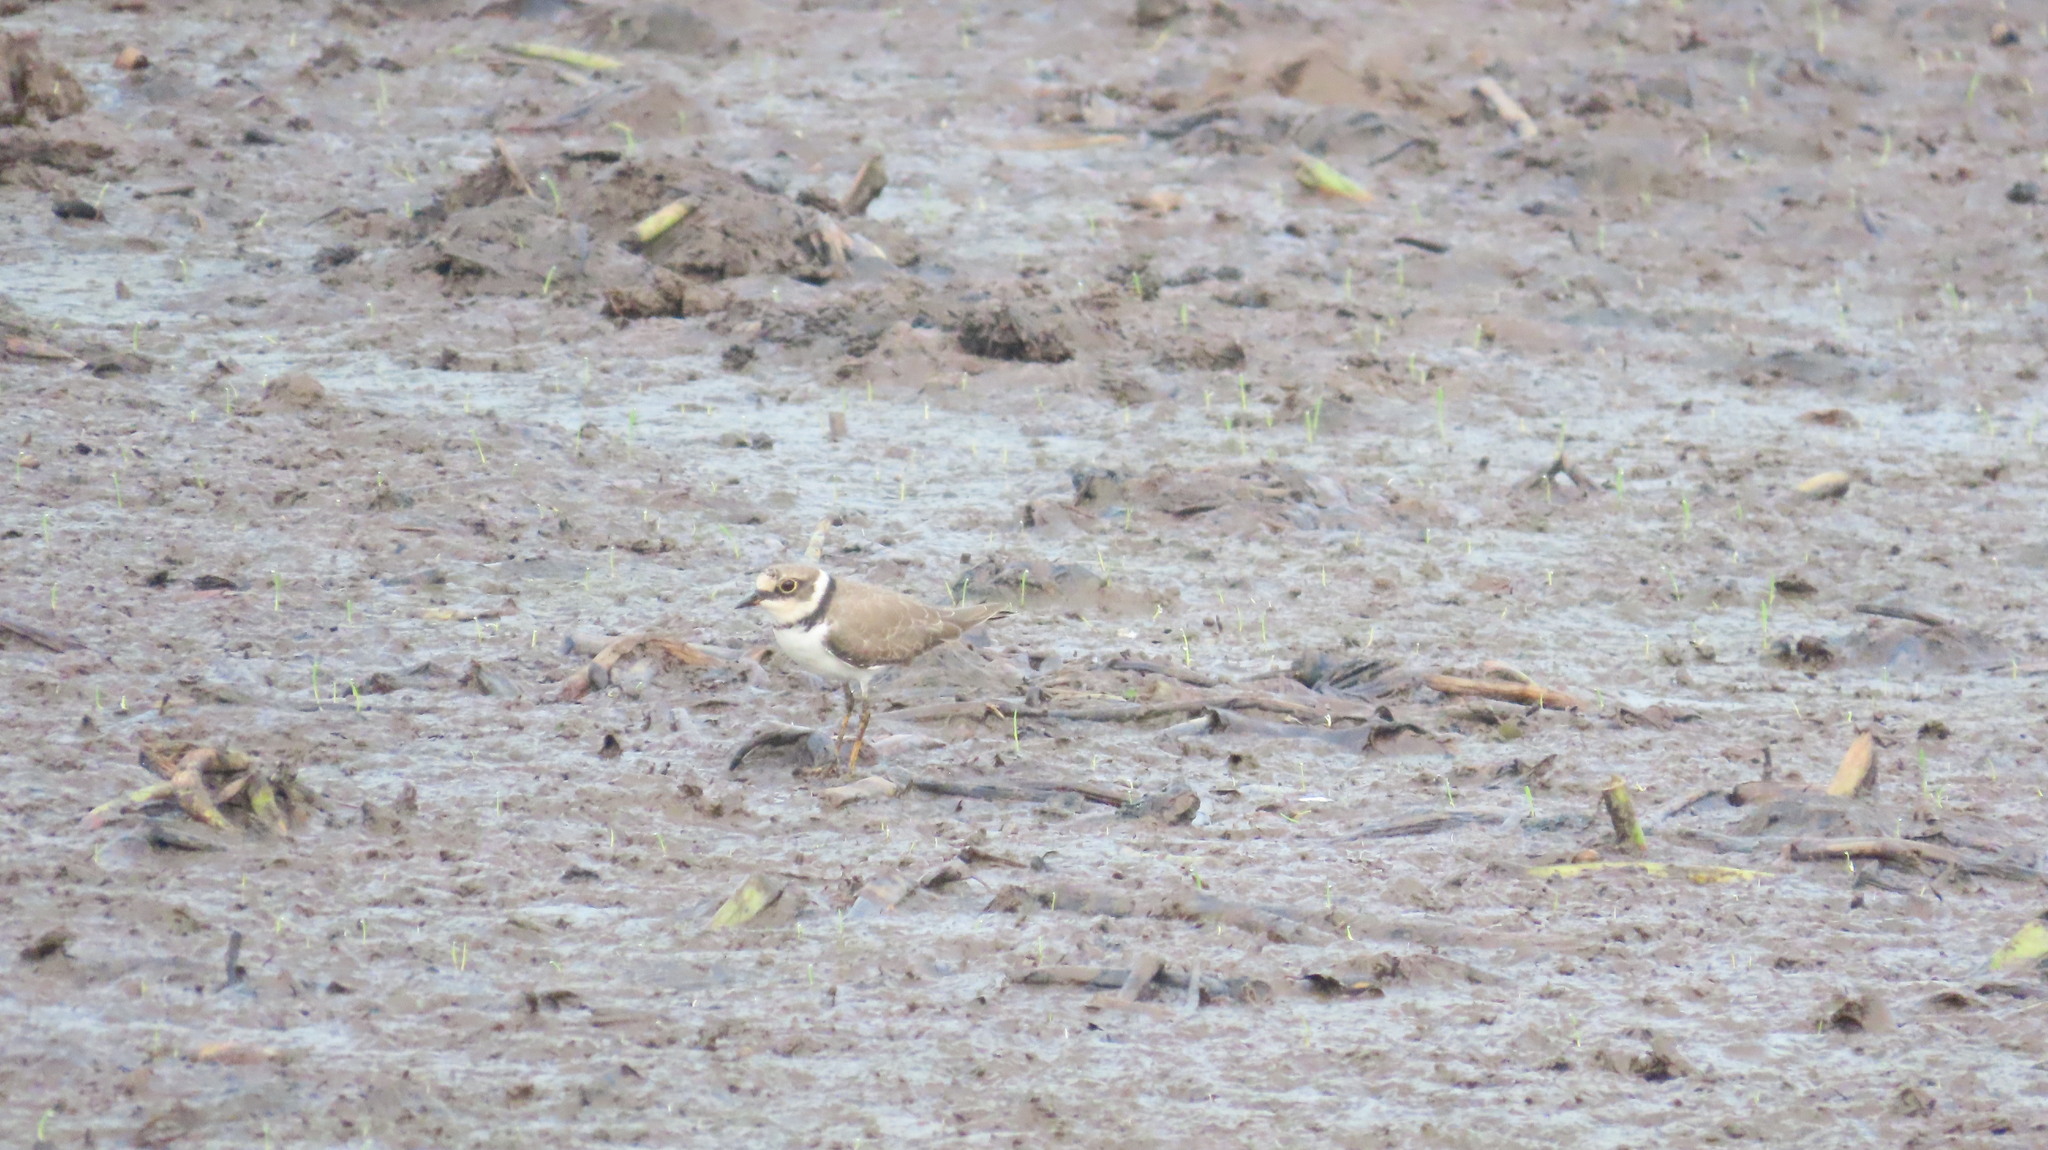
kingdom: Animalia
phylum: Chordata
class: Aves
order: Charadriiformes
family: Charadriidae
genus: Charadrius
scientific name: Charadrius dubius
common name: Little ringed plover
